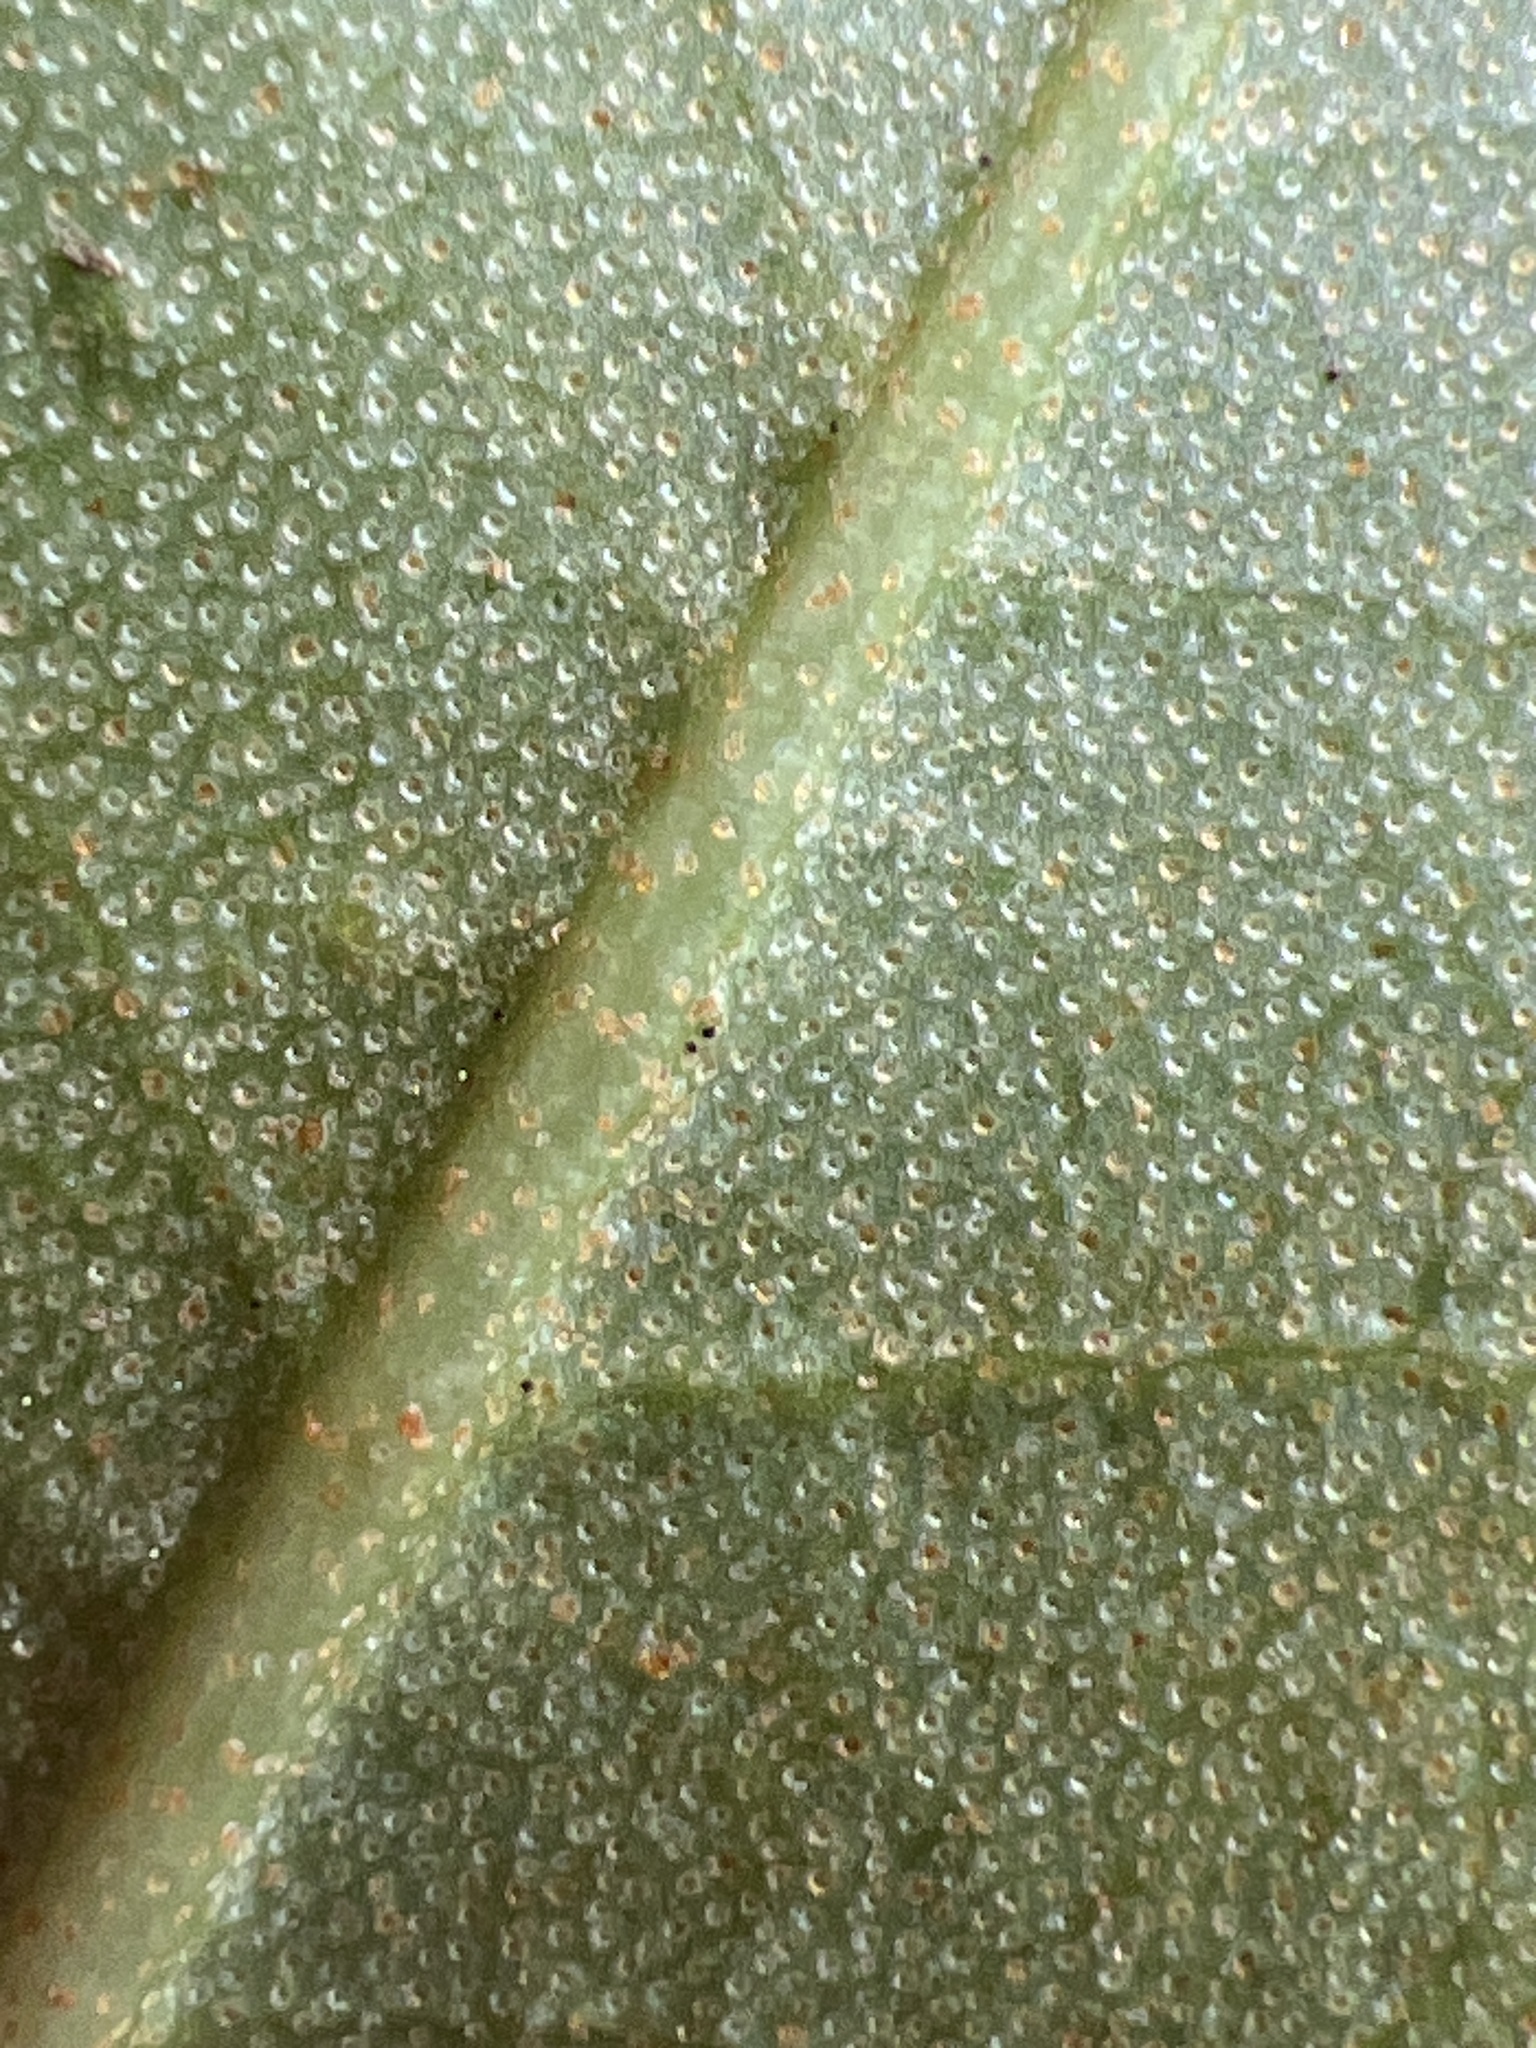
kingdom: Plantae
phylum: Tracheophyta
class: Magnoliopsida
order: Ericales
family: Ericaceae
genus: Rhododendron
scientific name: Rhododendron minus
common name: Piedmont rhododendron
